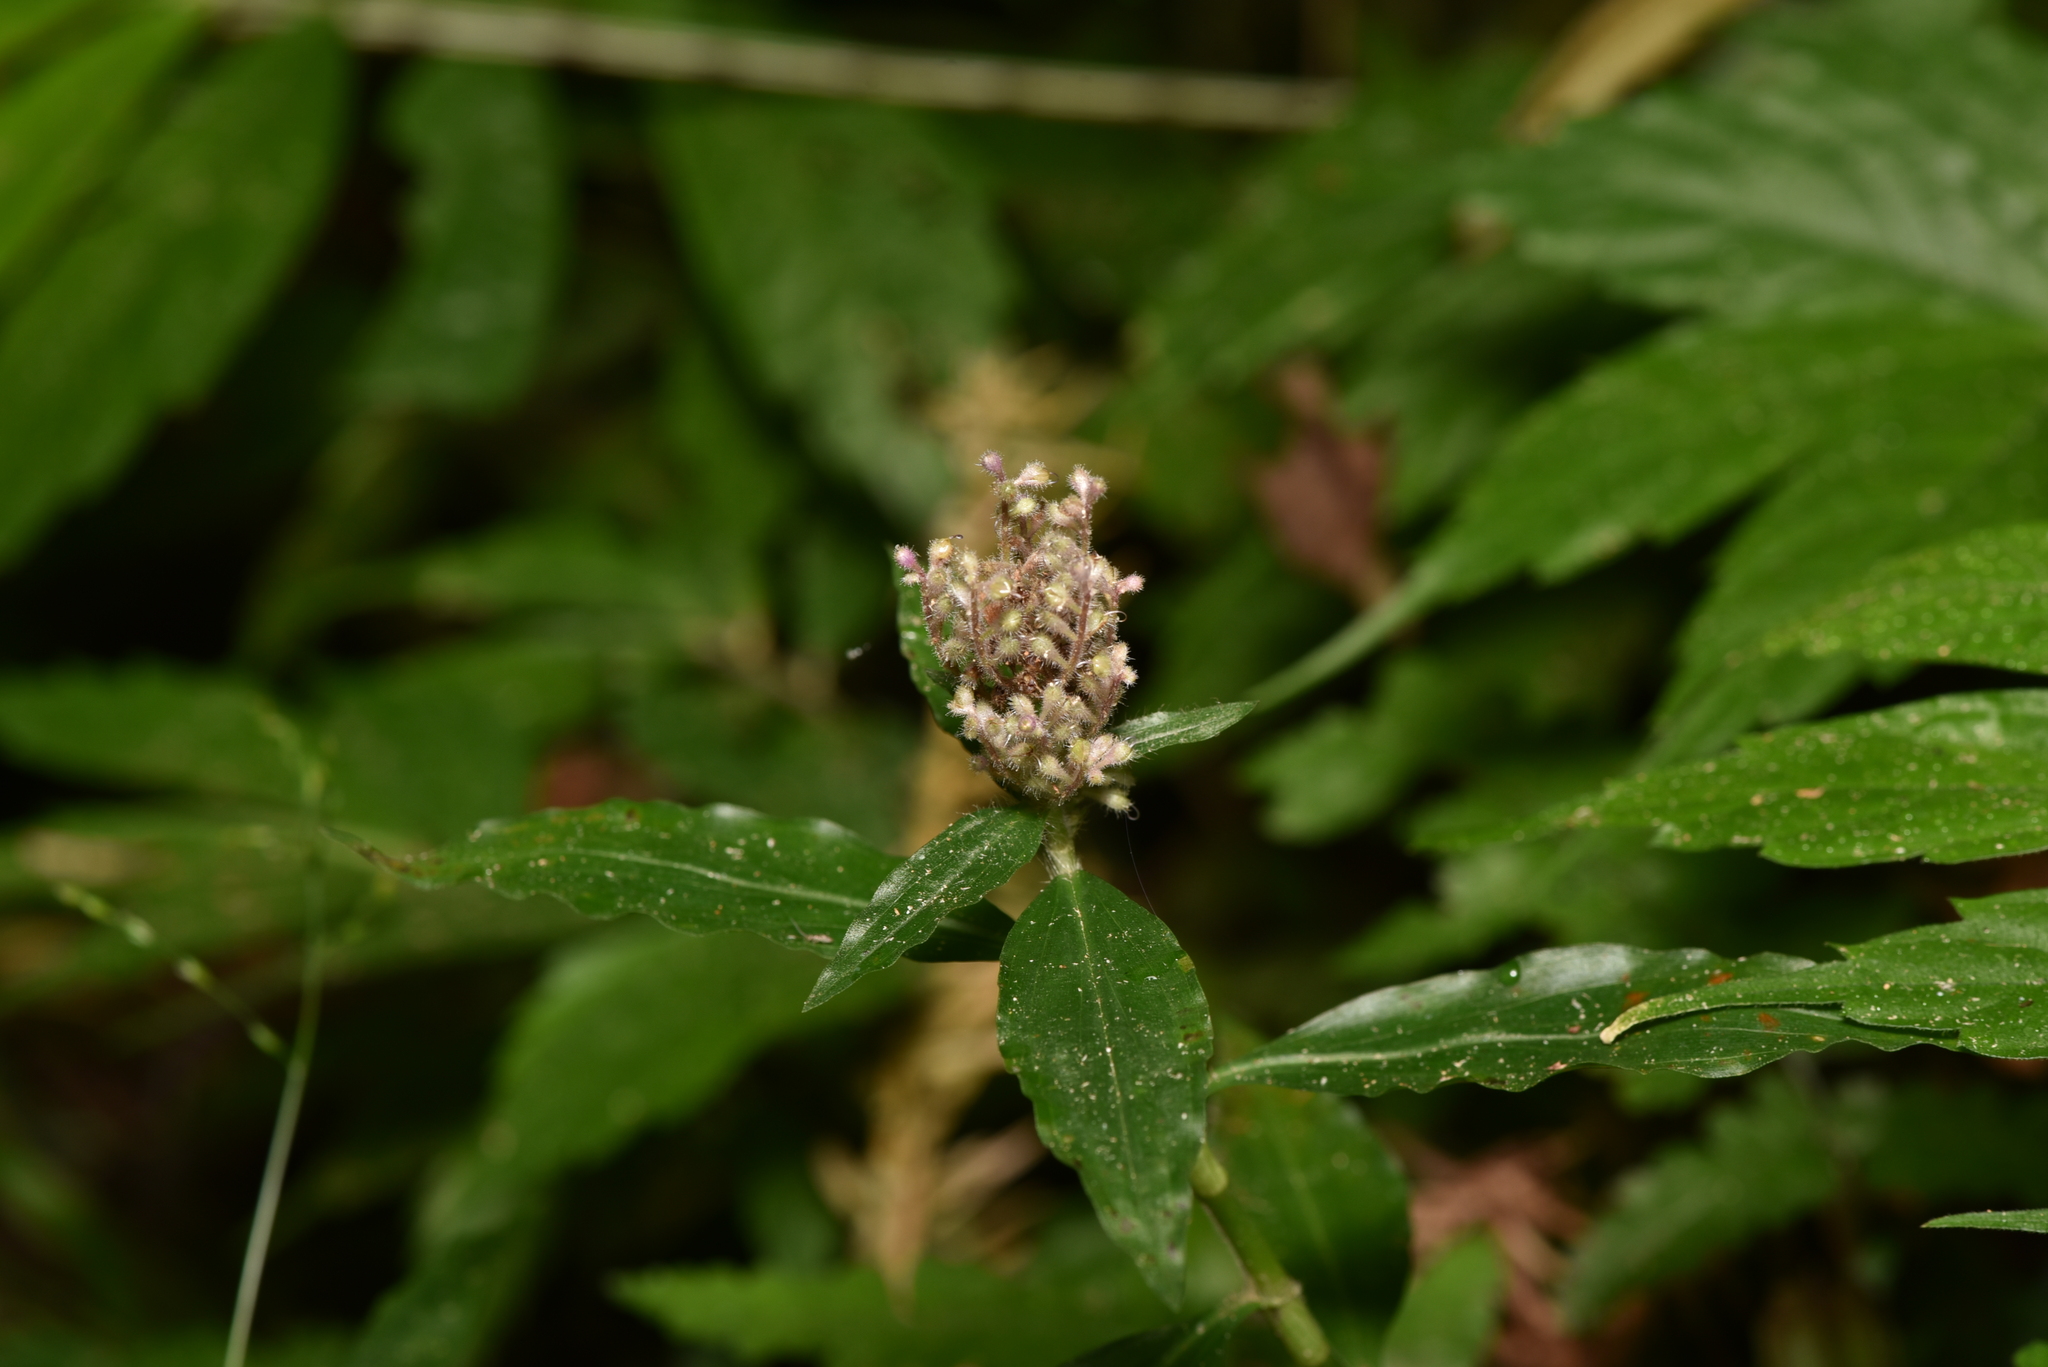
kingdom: Plantae
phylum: Tracheophyta
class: Liliopsida
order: Commelinales
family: Commelinaceae
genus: Floscopa
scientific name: Floscopa scandens
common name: Climbing flower cup
